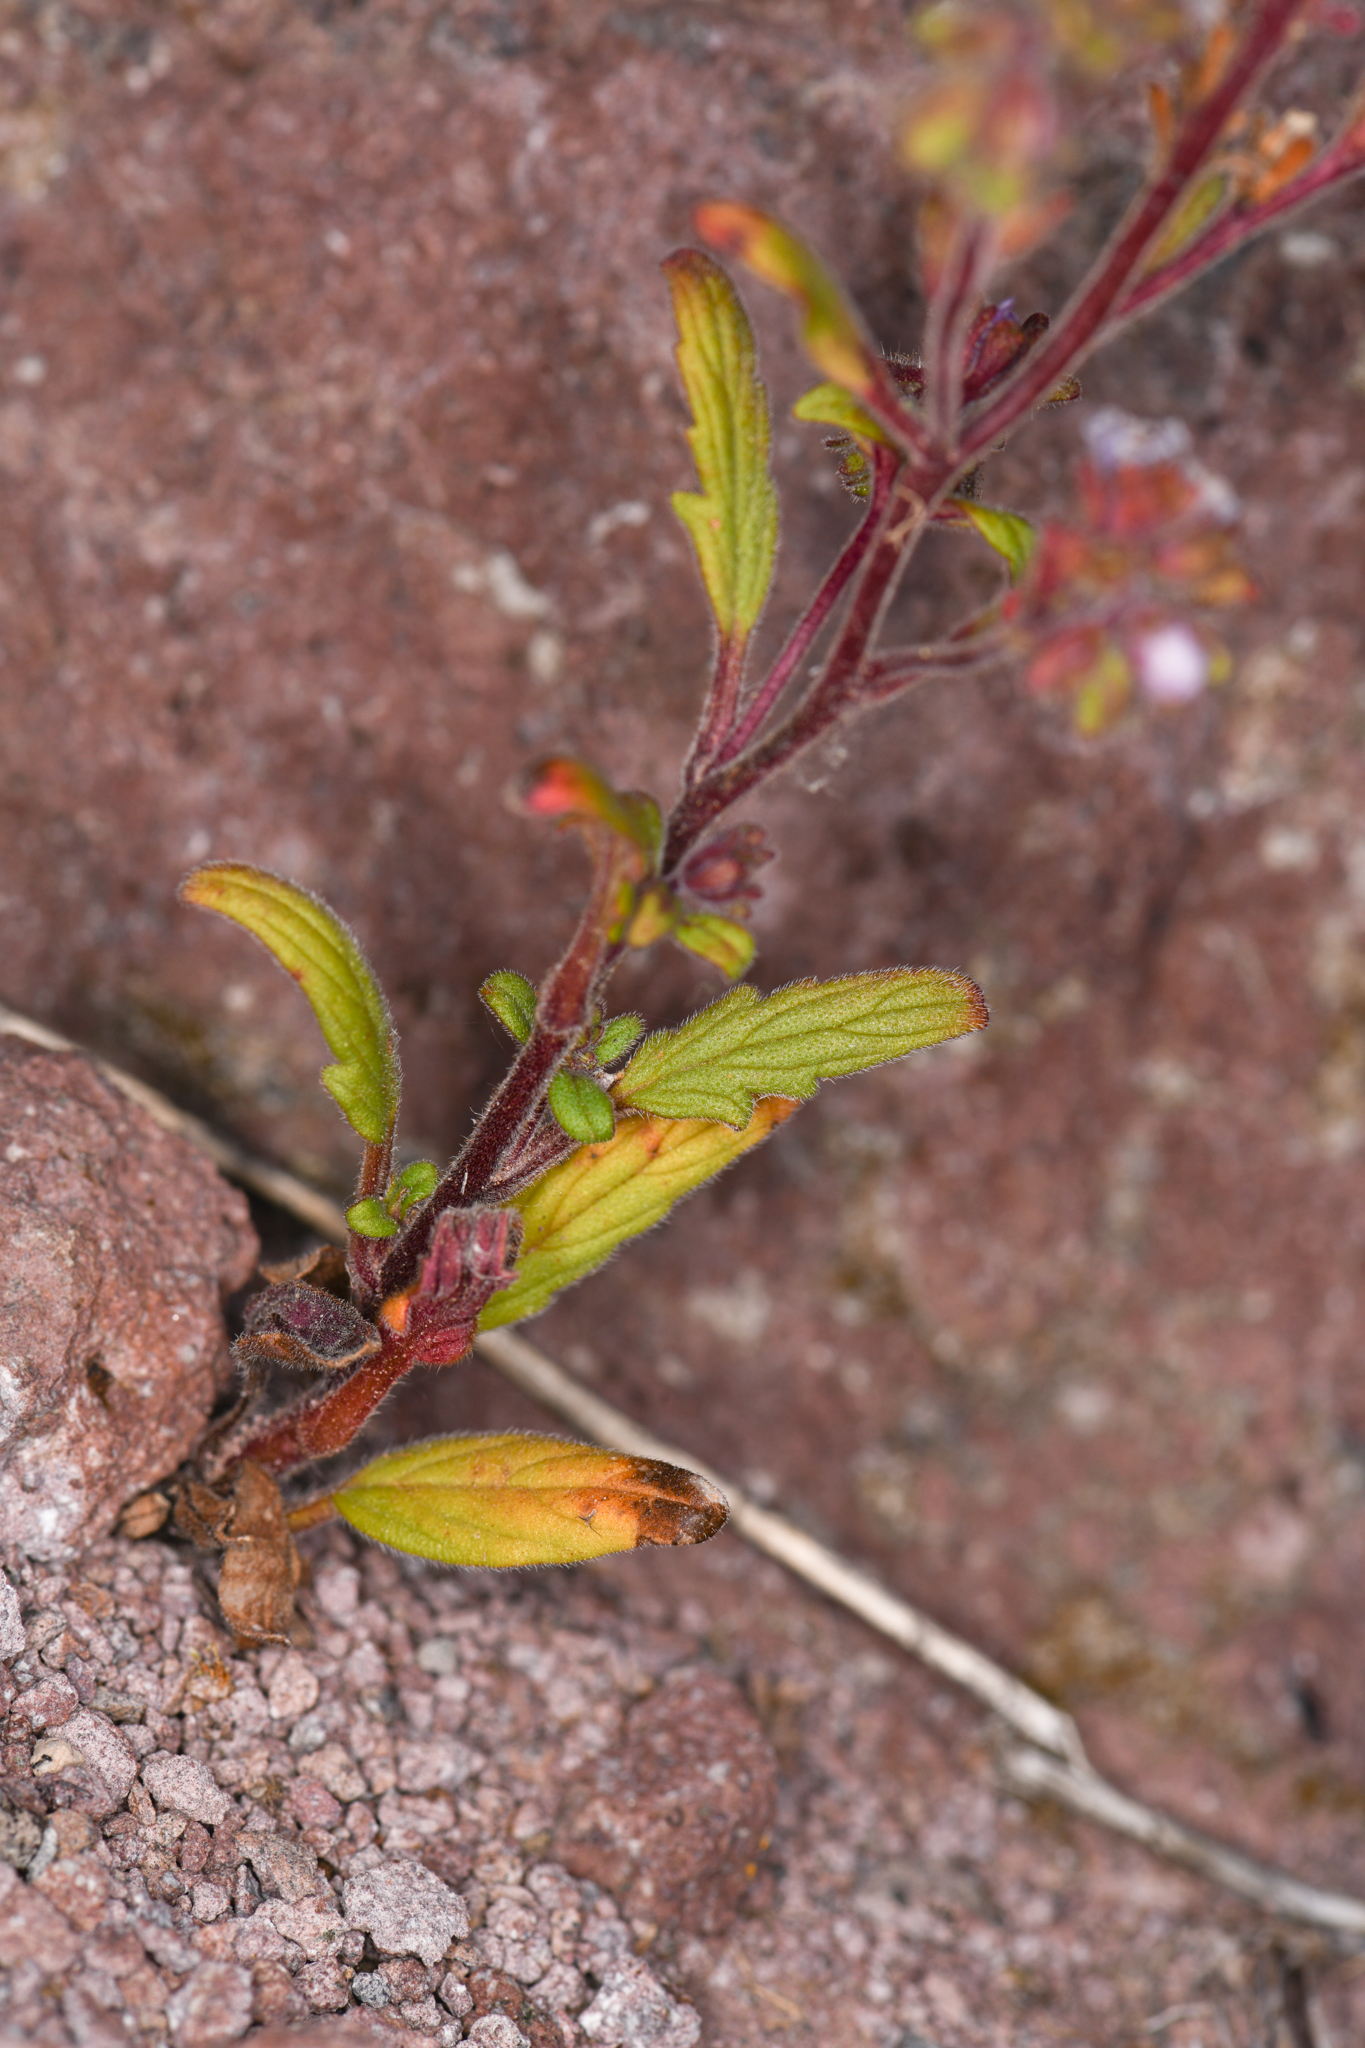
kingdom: Plantae
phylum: Tracheophyta
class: Magnoliopsida
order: Boraginales
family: Hydrophyllaceae
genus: Phacelia
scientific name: Phacelia purpusii
